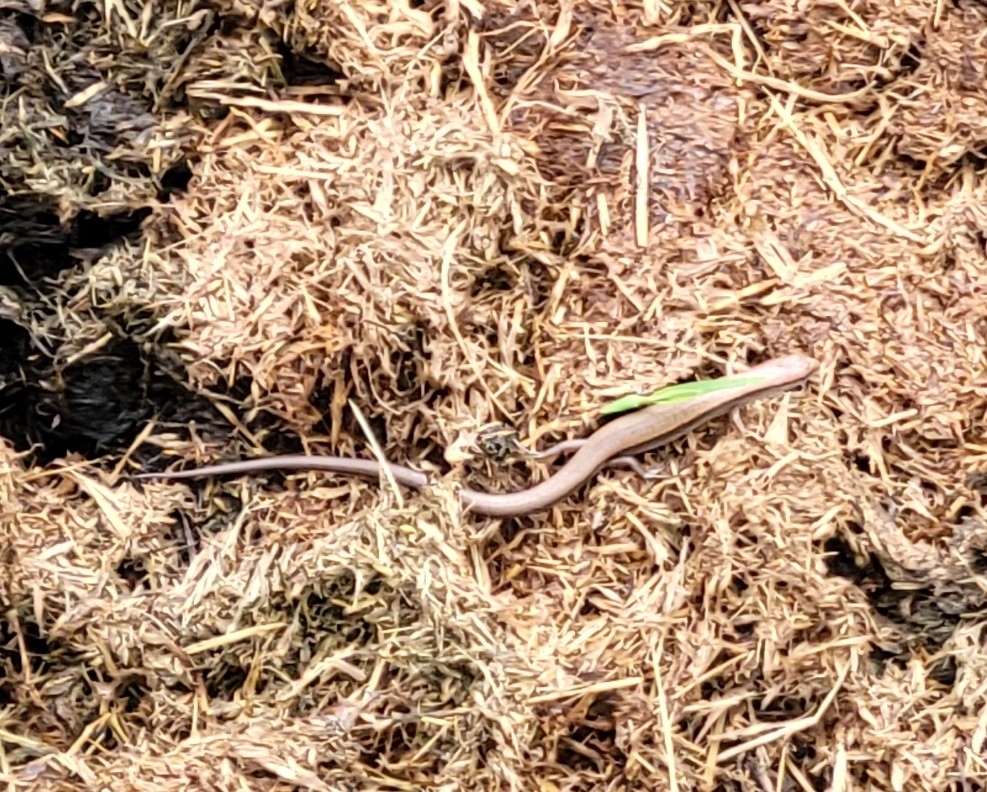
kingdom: Animalia
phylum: Chordata
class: Squamata
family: Scincidae
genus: Scincella
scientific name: Scincella lateralis
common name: Ground skink
